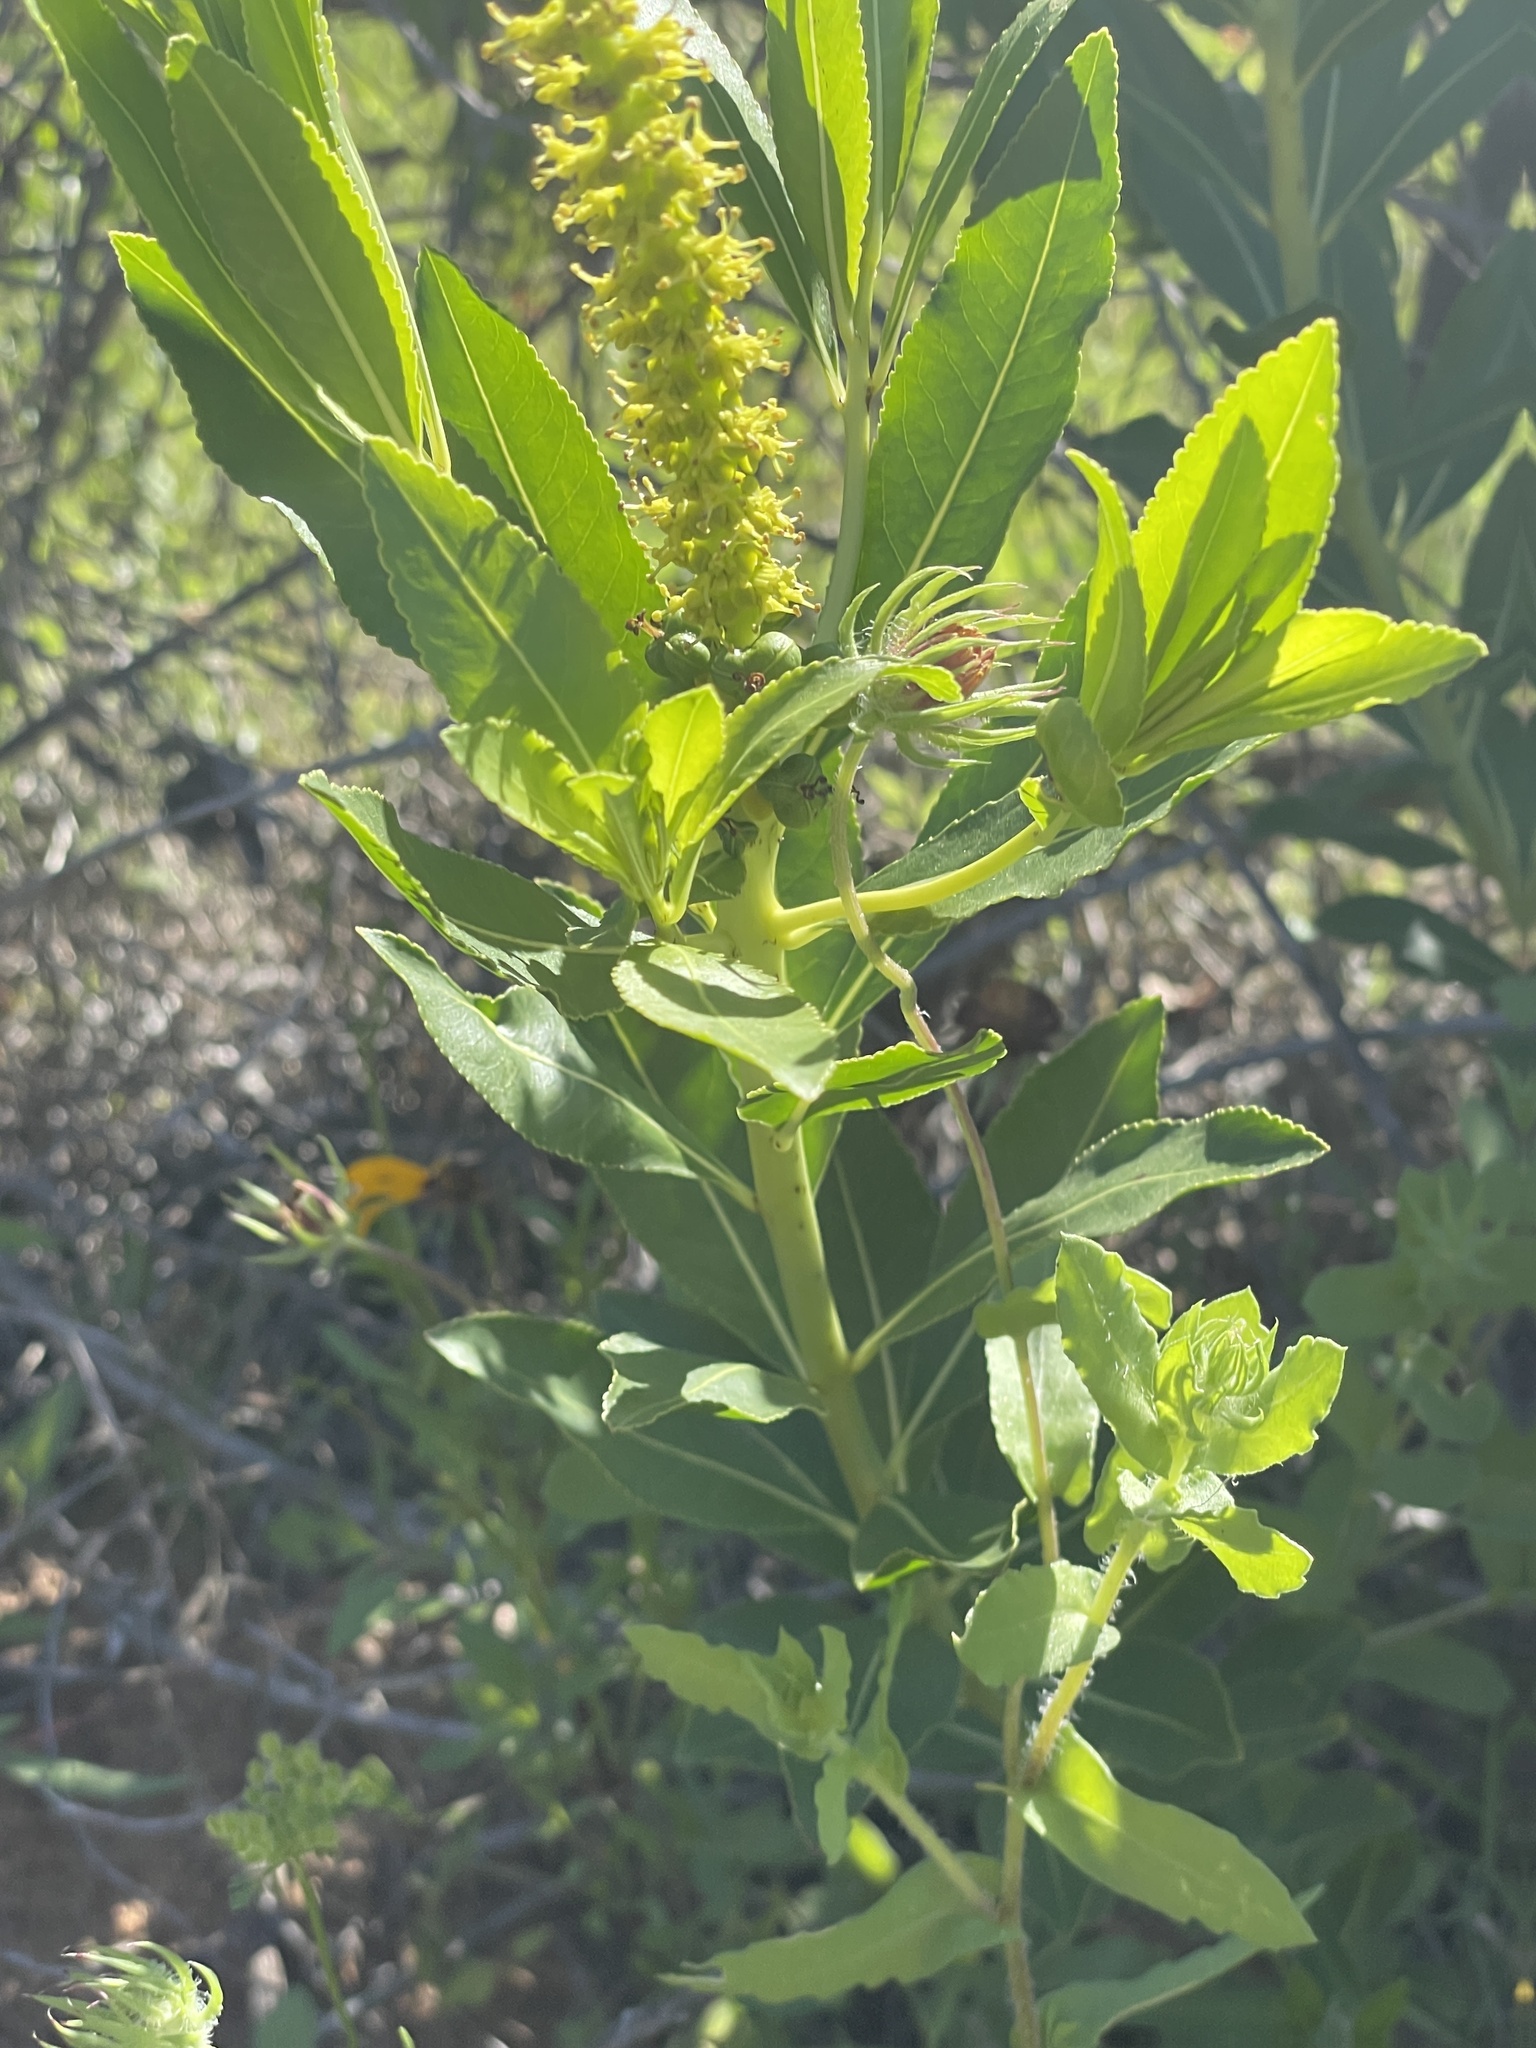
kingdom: Plantae
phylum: Tracheophyta
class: Magnoliopsida
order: Malpighiales
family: Euphorbiaceae
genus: Stillingia
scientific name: Stillingia sylvatica
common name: Queen's-delight
